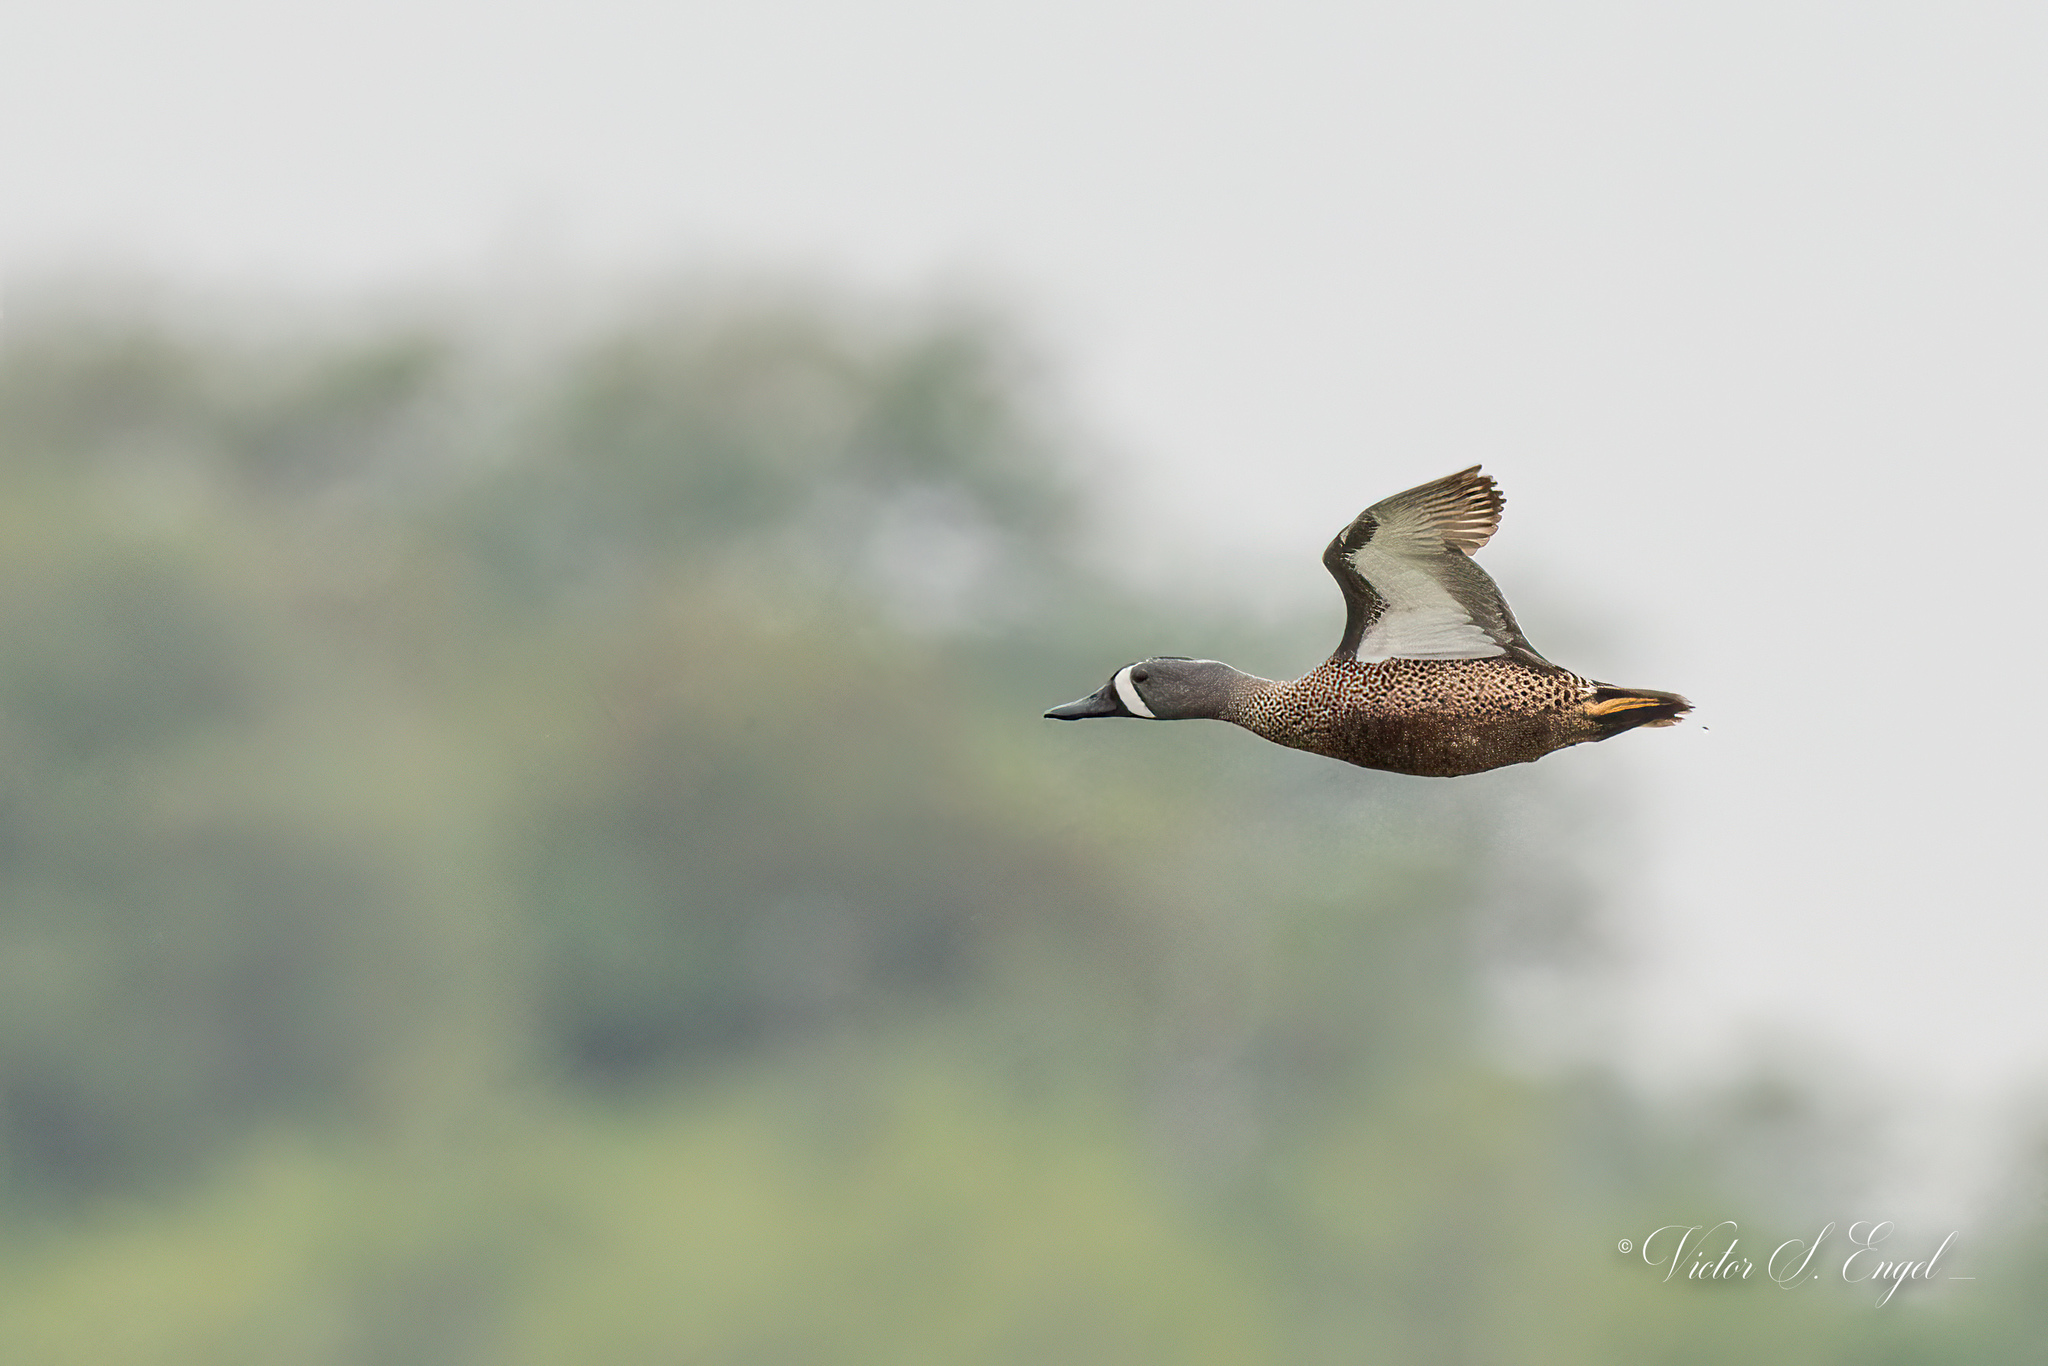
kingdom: Animalia
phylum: Chordata
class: Aves
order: Anseriformes
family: Anatidae
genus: Spatula
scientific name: Spatula discors
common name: Blue-winged teal
